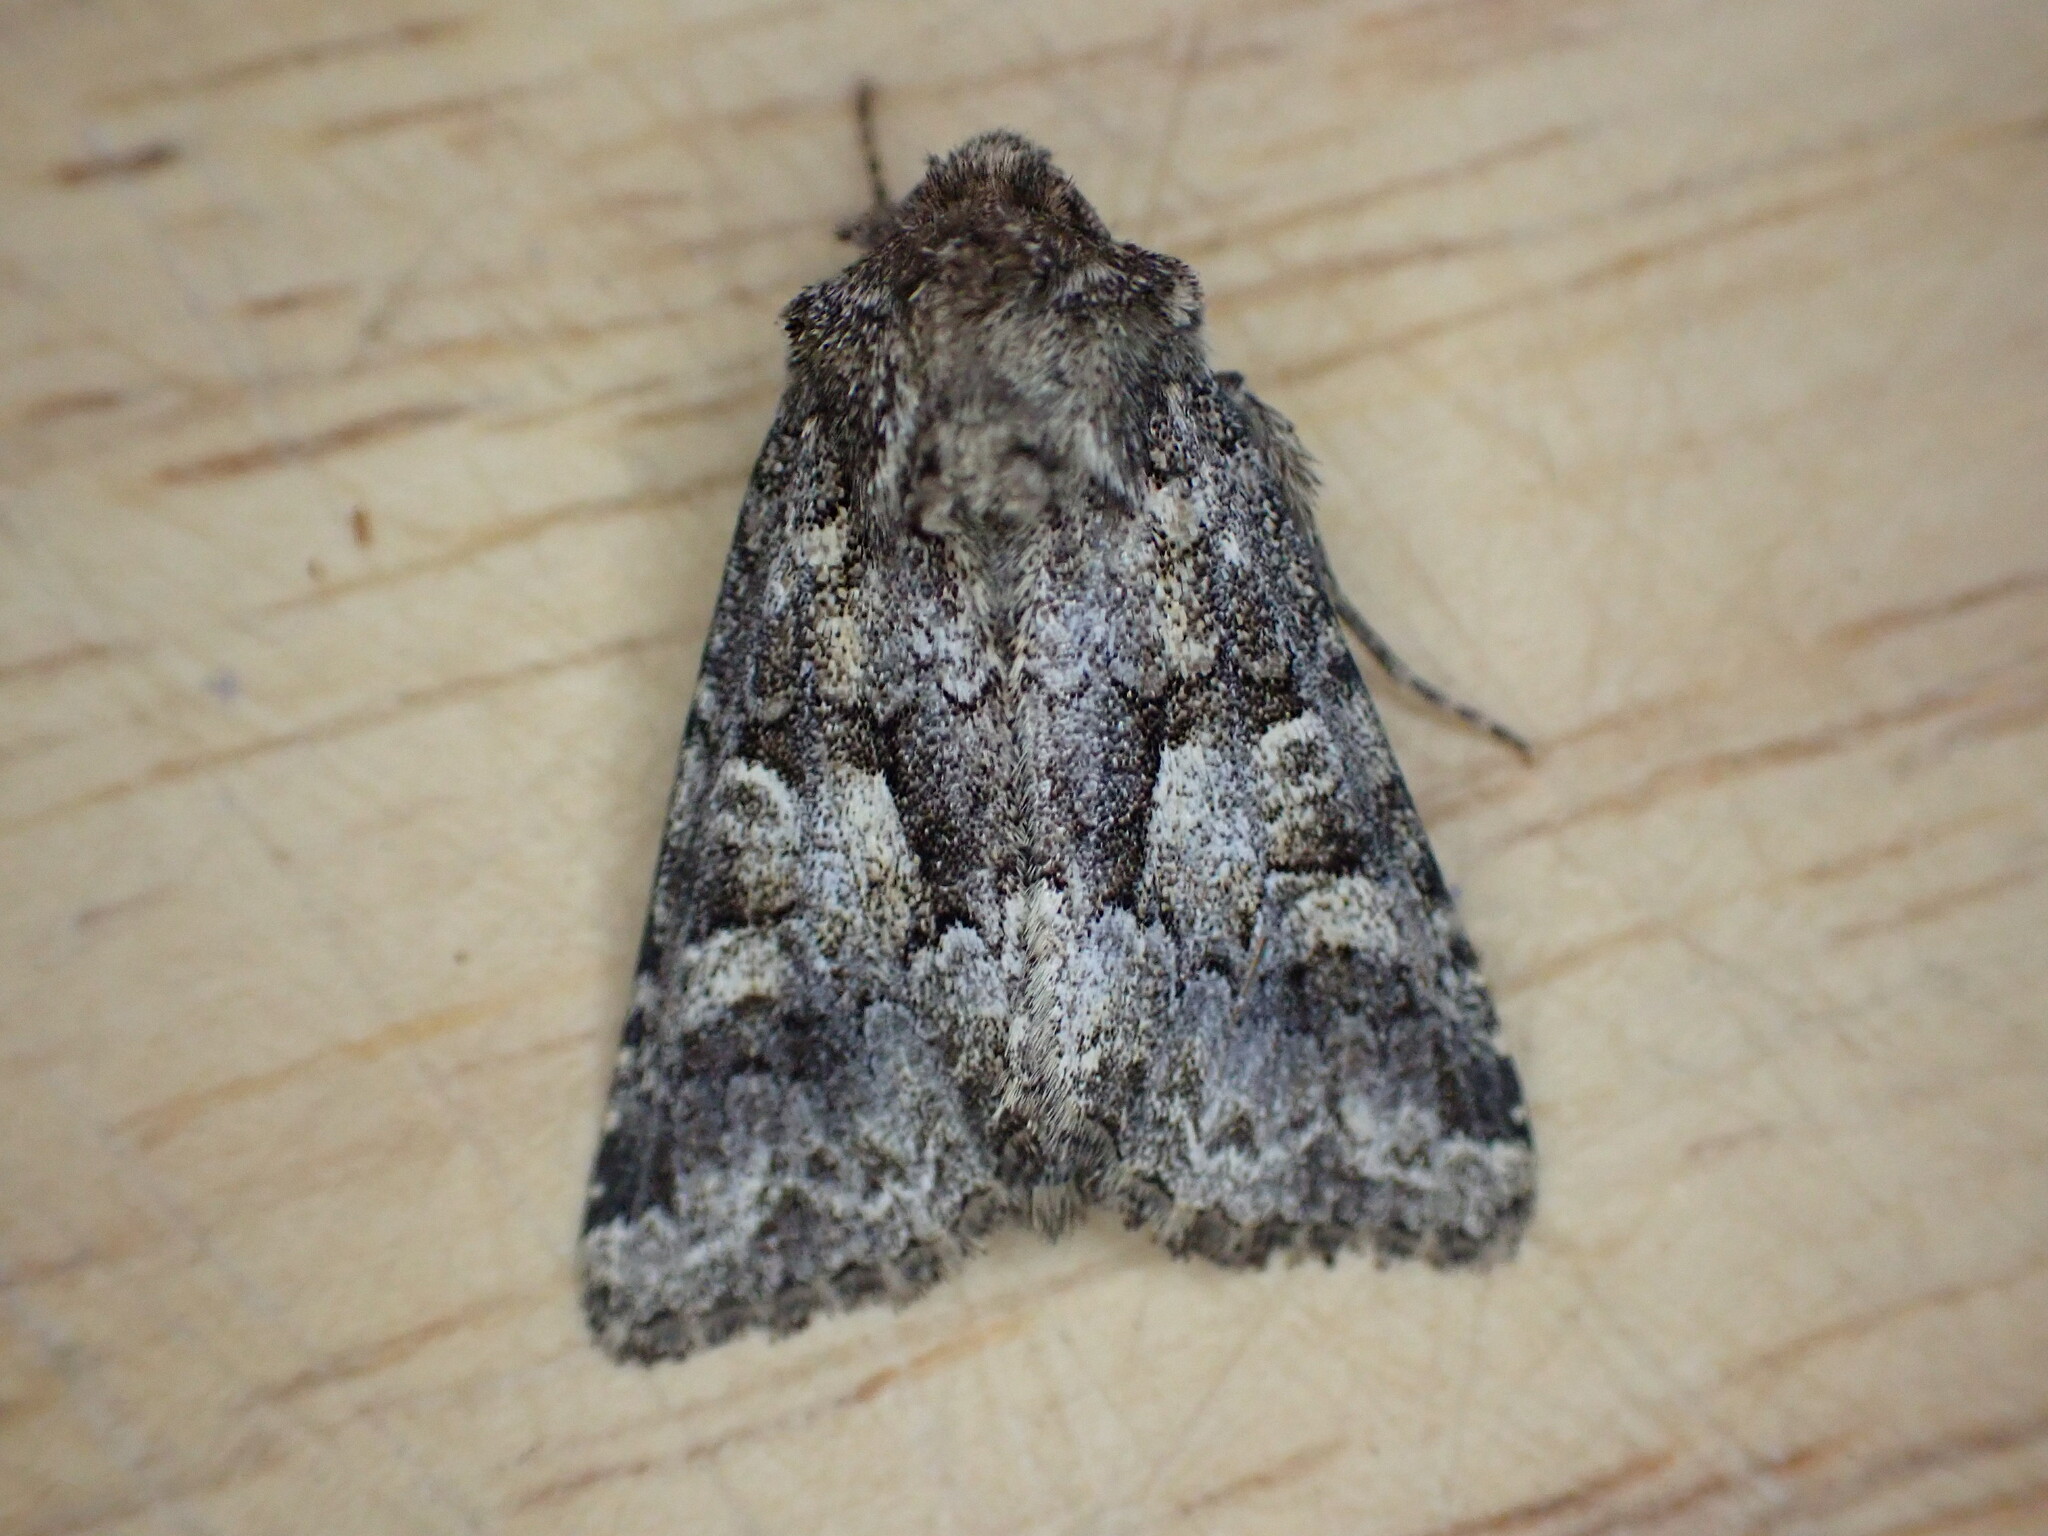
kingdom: Animalia
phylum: Arthropoda
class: Insecta
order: Lepidoptera
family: Noctuidae
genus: Mniotype
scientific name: Mniotype adusta
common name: Dark brocade
